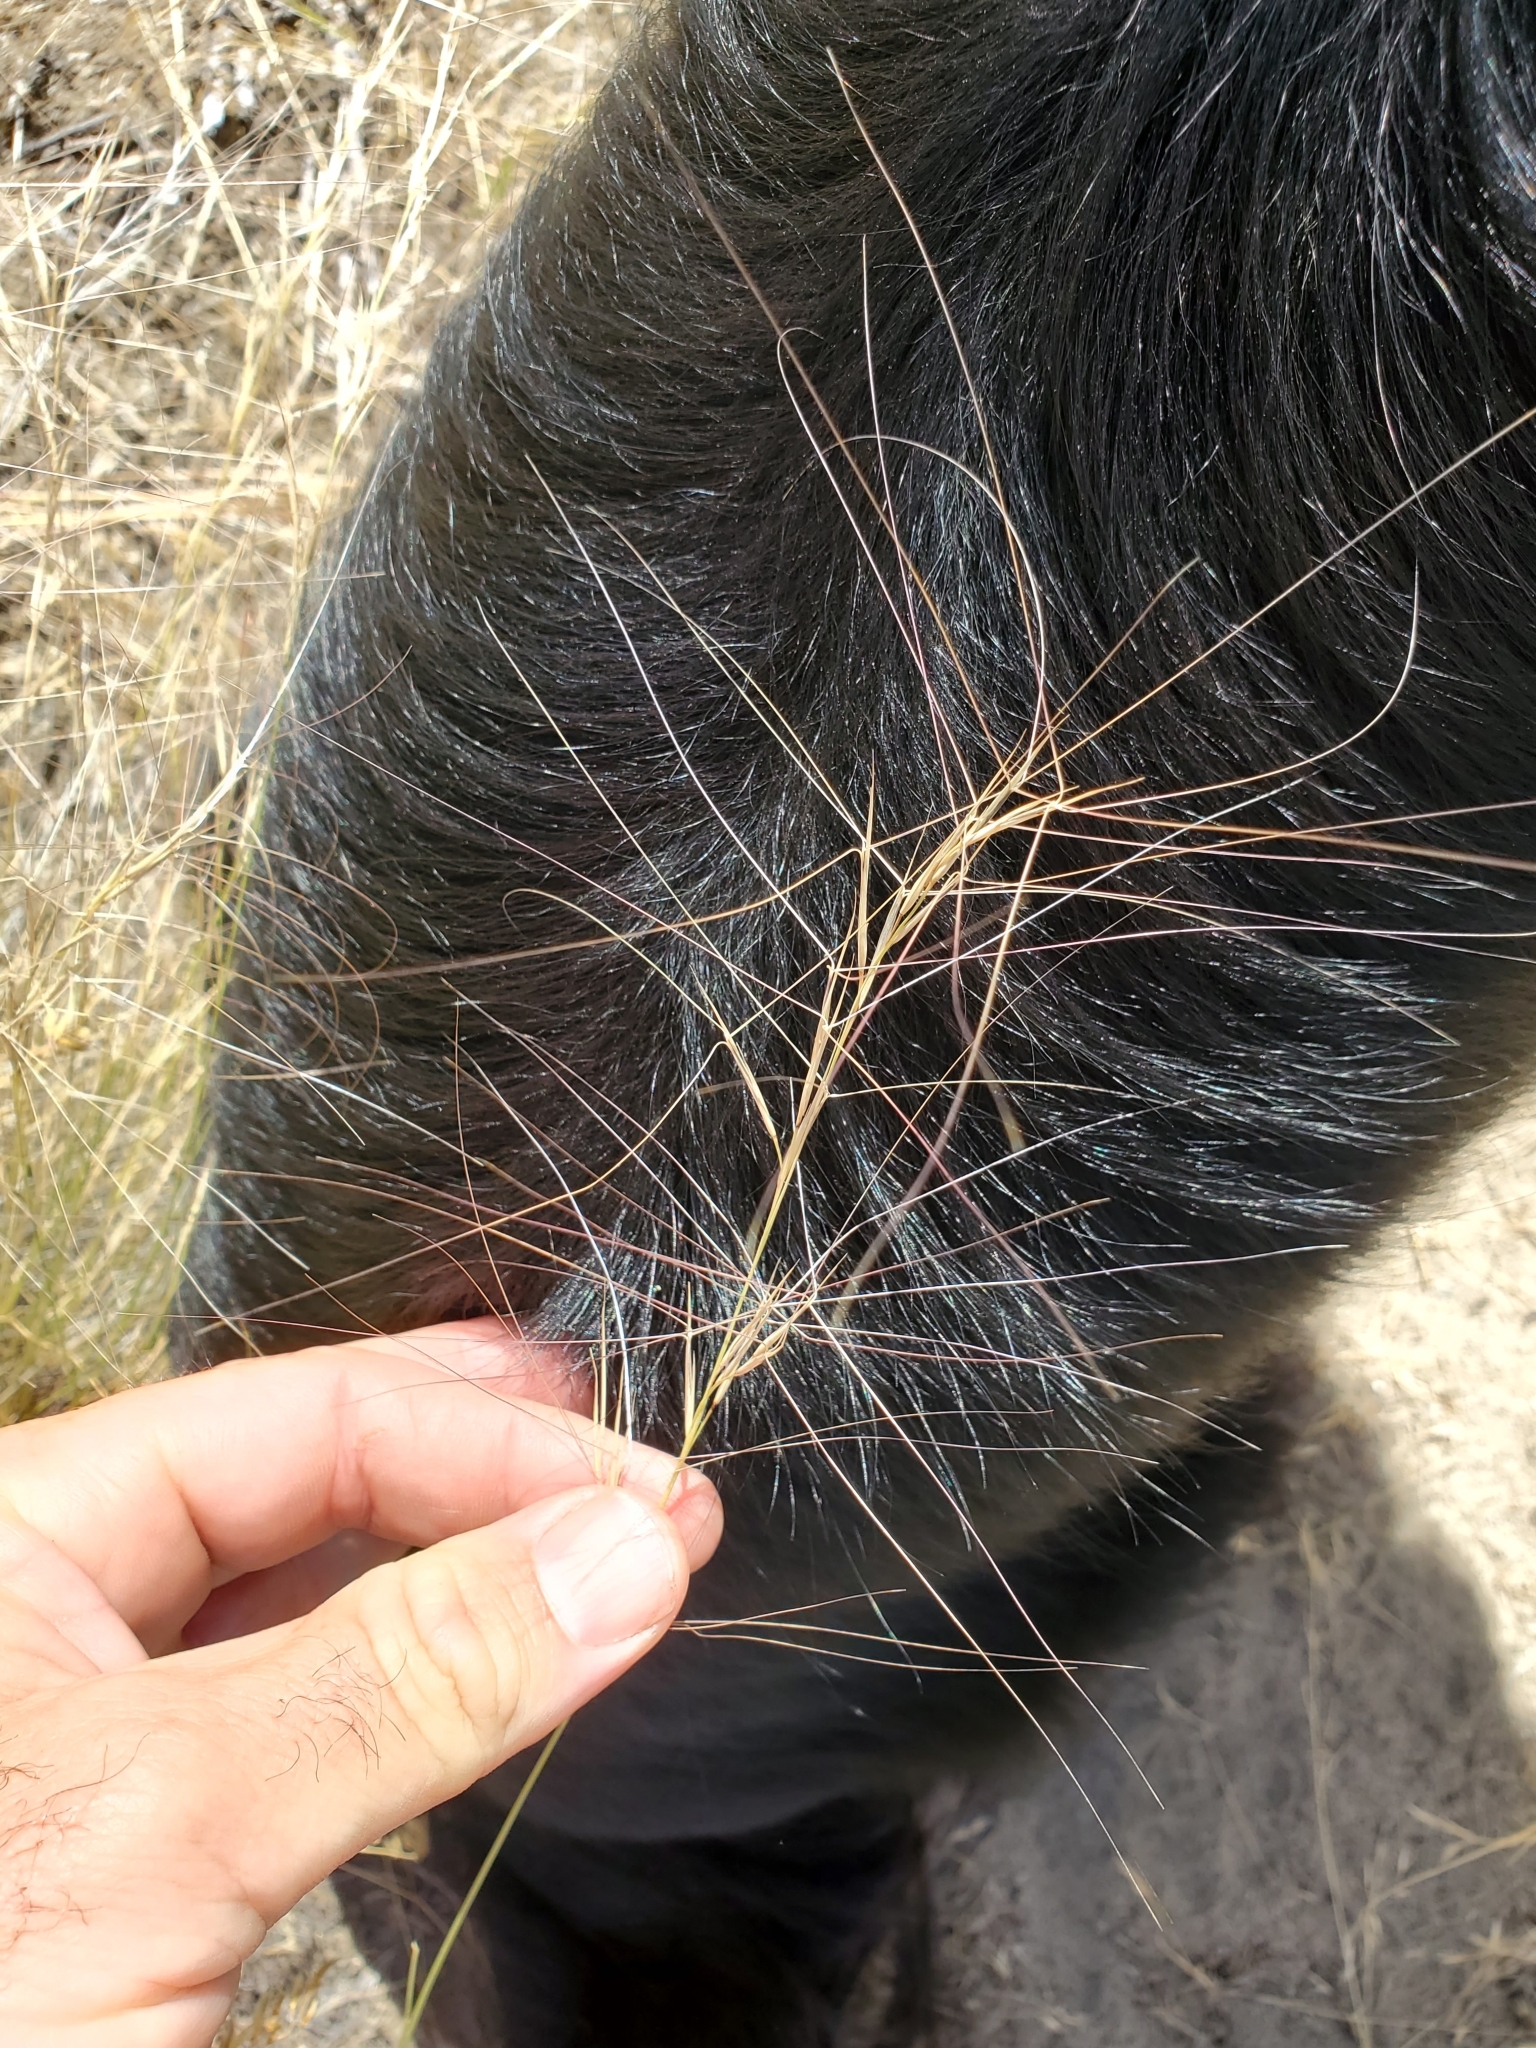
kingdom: Plantae
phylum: Tracheophyta
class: Liliopsida
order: Poales
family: Poaceae
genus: Aristida
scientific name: Aristida longiseta
